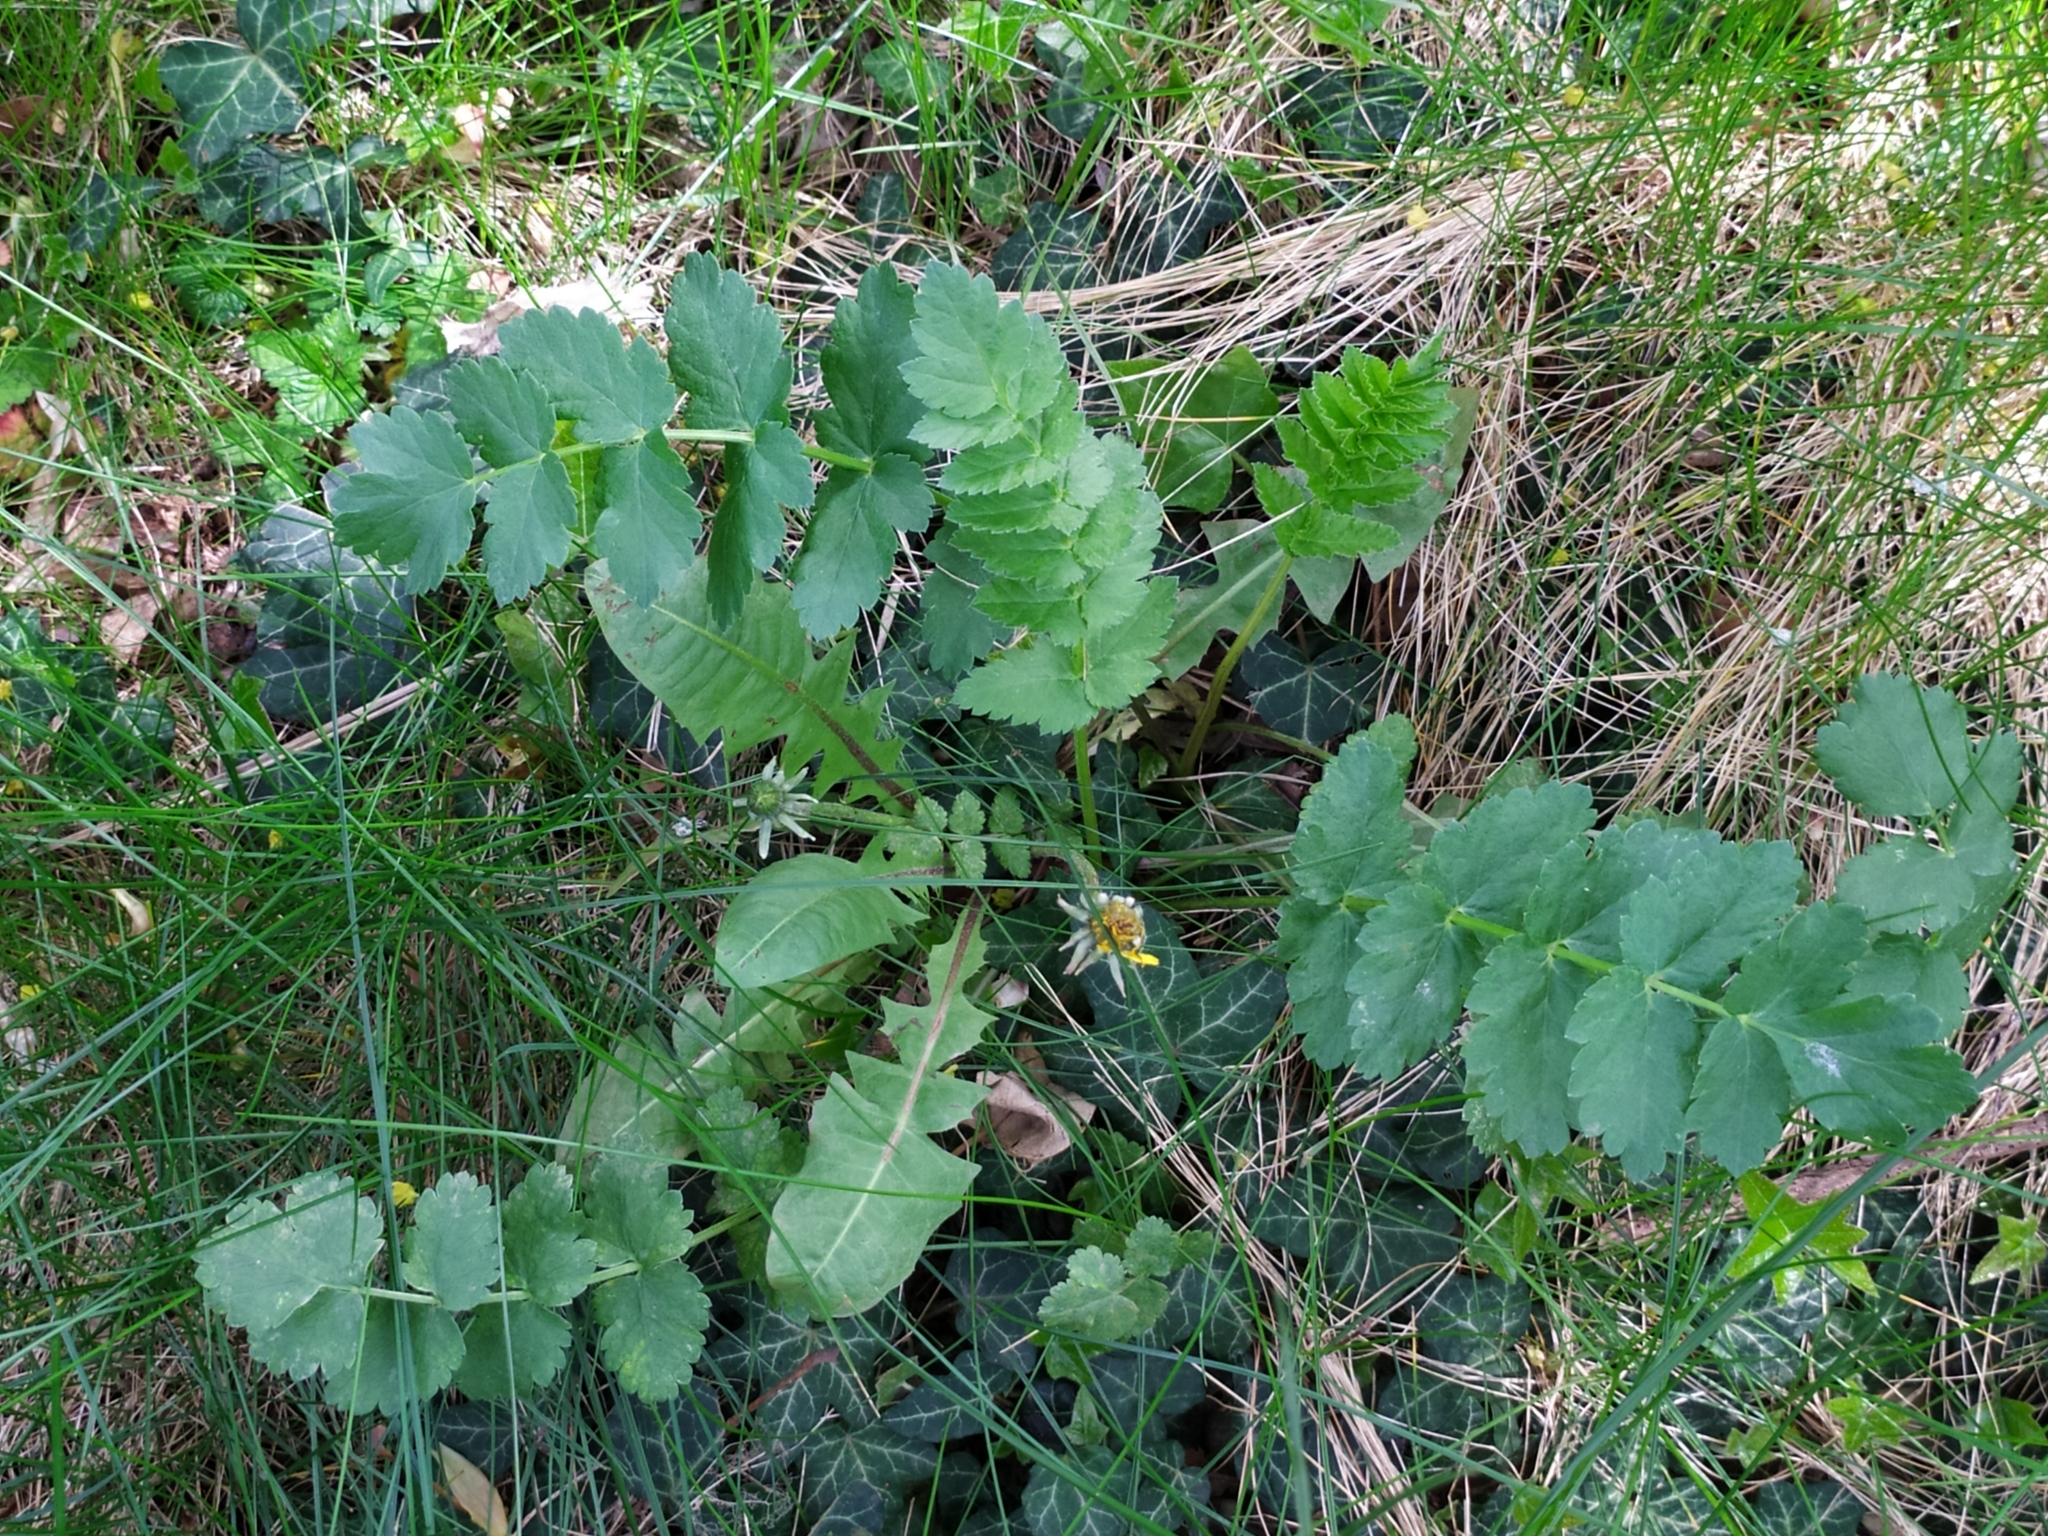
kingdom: Plantae
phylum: Tracheophyta
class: Magnoliopsida
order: Apiales
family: Apiaceae
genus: Pastinaca
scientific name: Pastinaca sativa
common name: Wild parsnip
